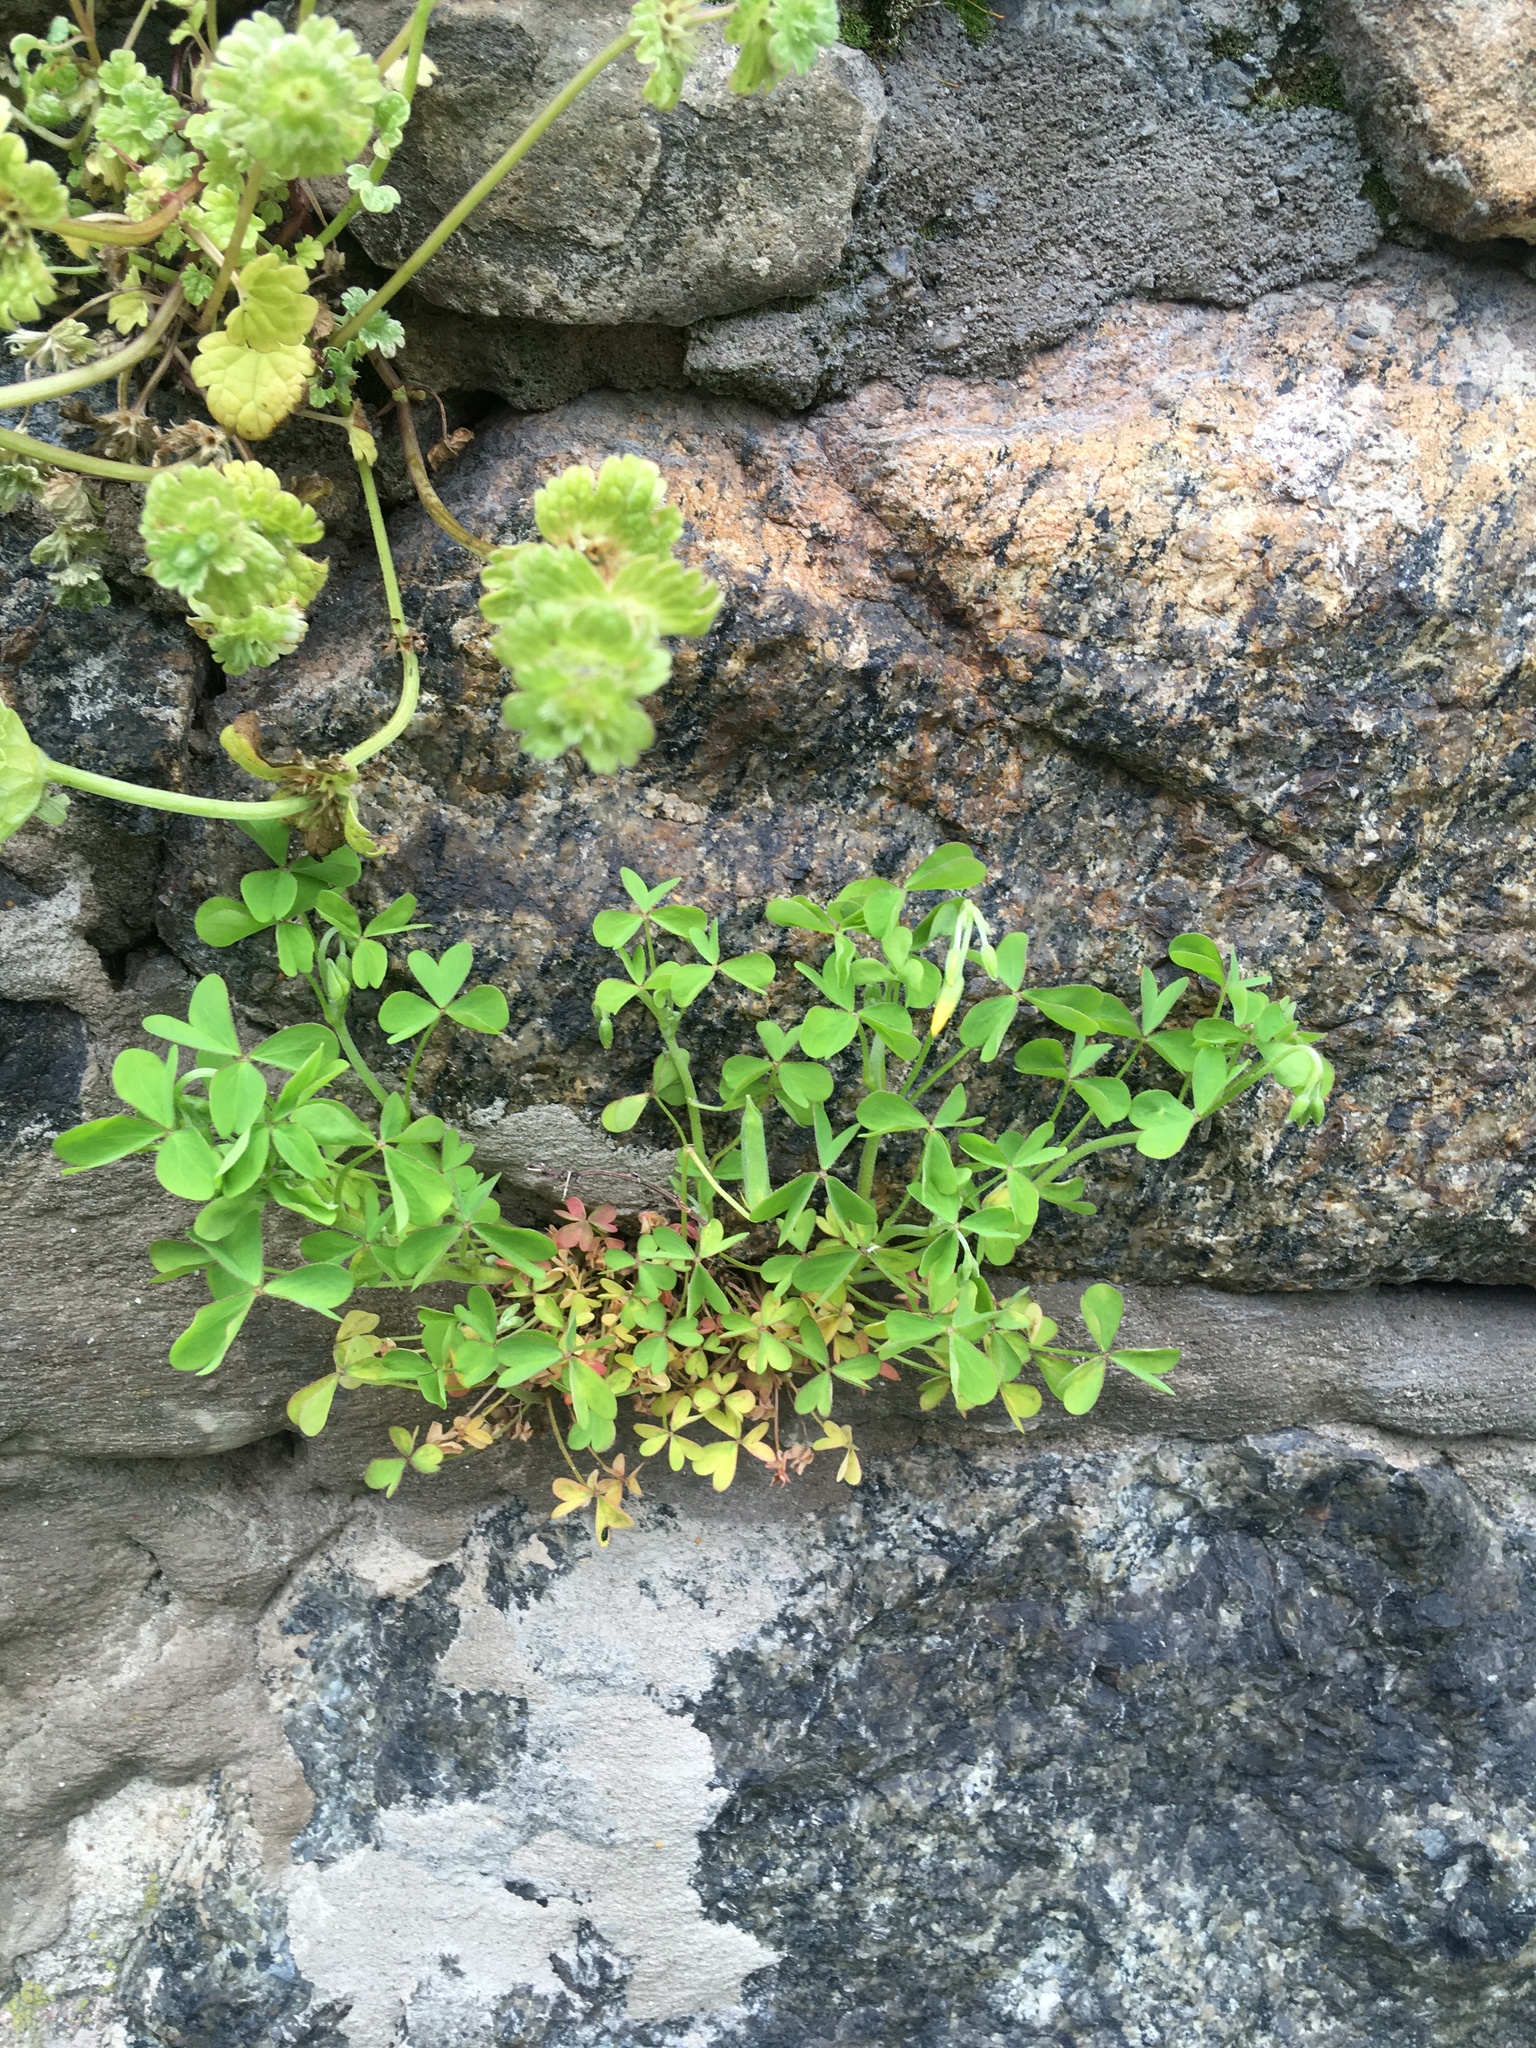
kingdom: Plantae
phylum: Tracheophyta
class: Magnoliopsida
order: Oxalidales
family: Oxalidaceae
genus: Oxalis
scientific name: Oxalis corniculata
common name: Procumbent yellow-sorrel
